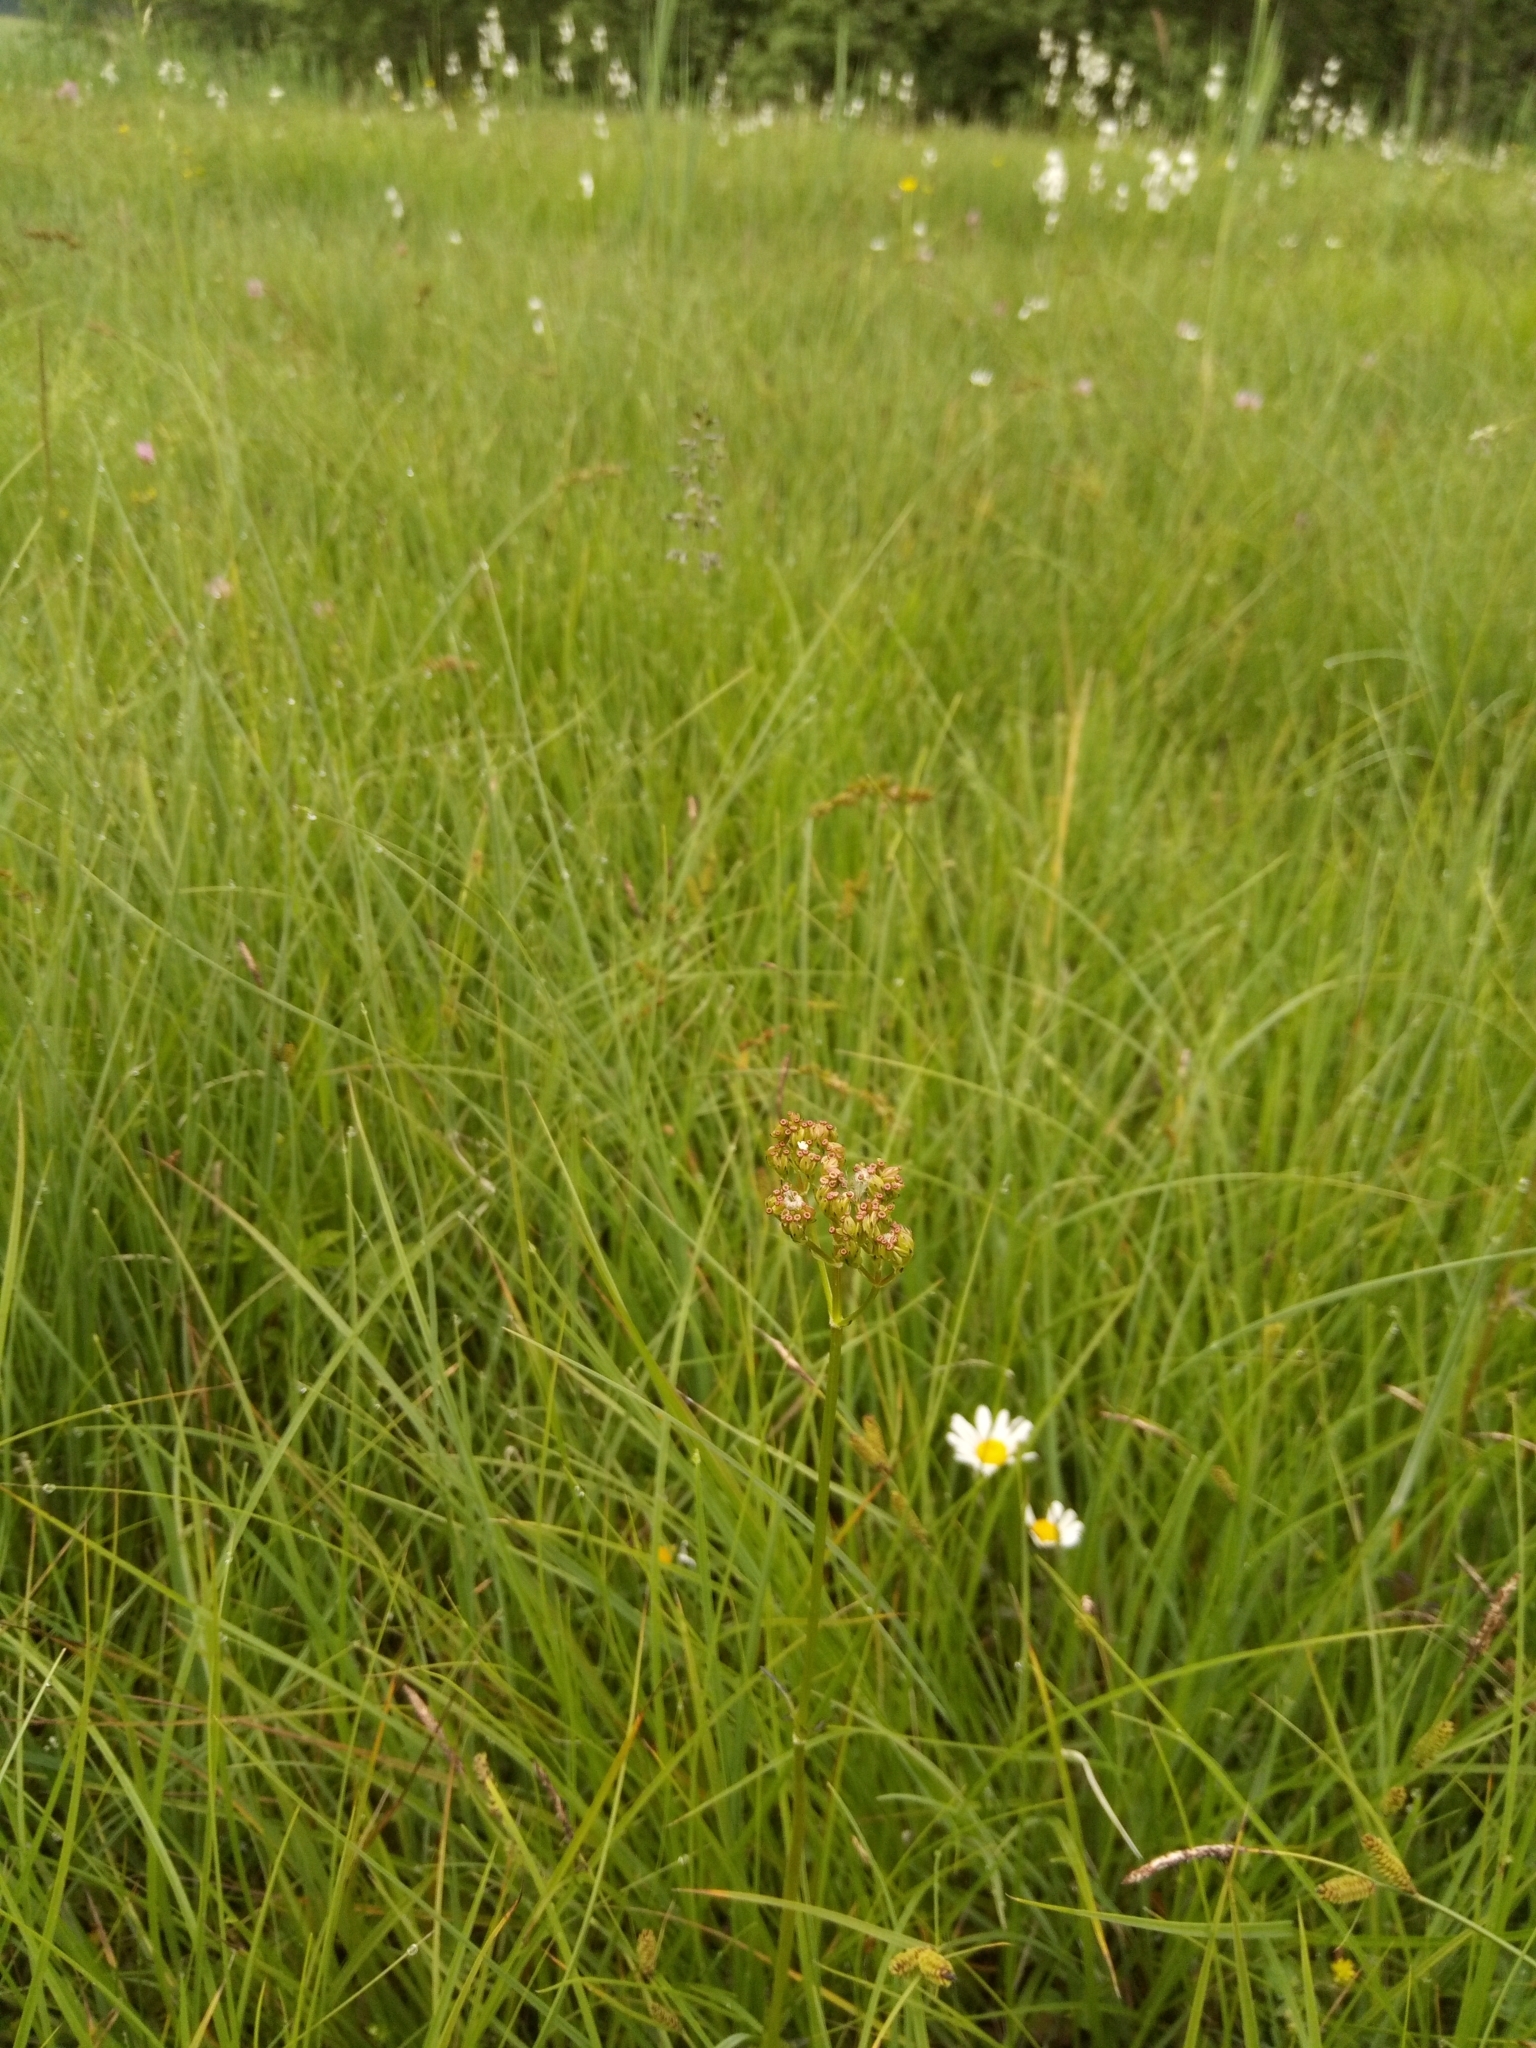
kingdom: Plantae
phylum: Tracheophyta
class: Magnoliopsida
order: Dipsacales
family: Caprifoliaceae
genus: Valeriana
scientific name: Valeriana dioica
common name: Marsh valerian
